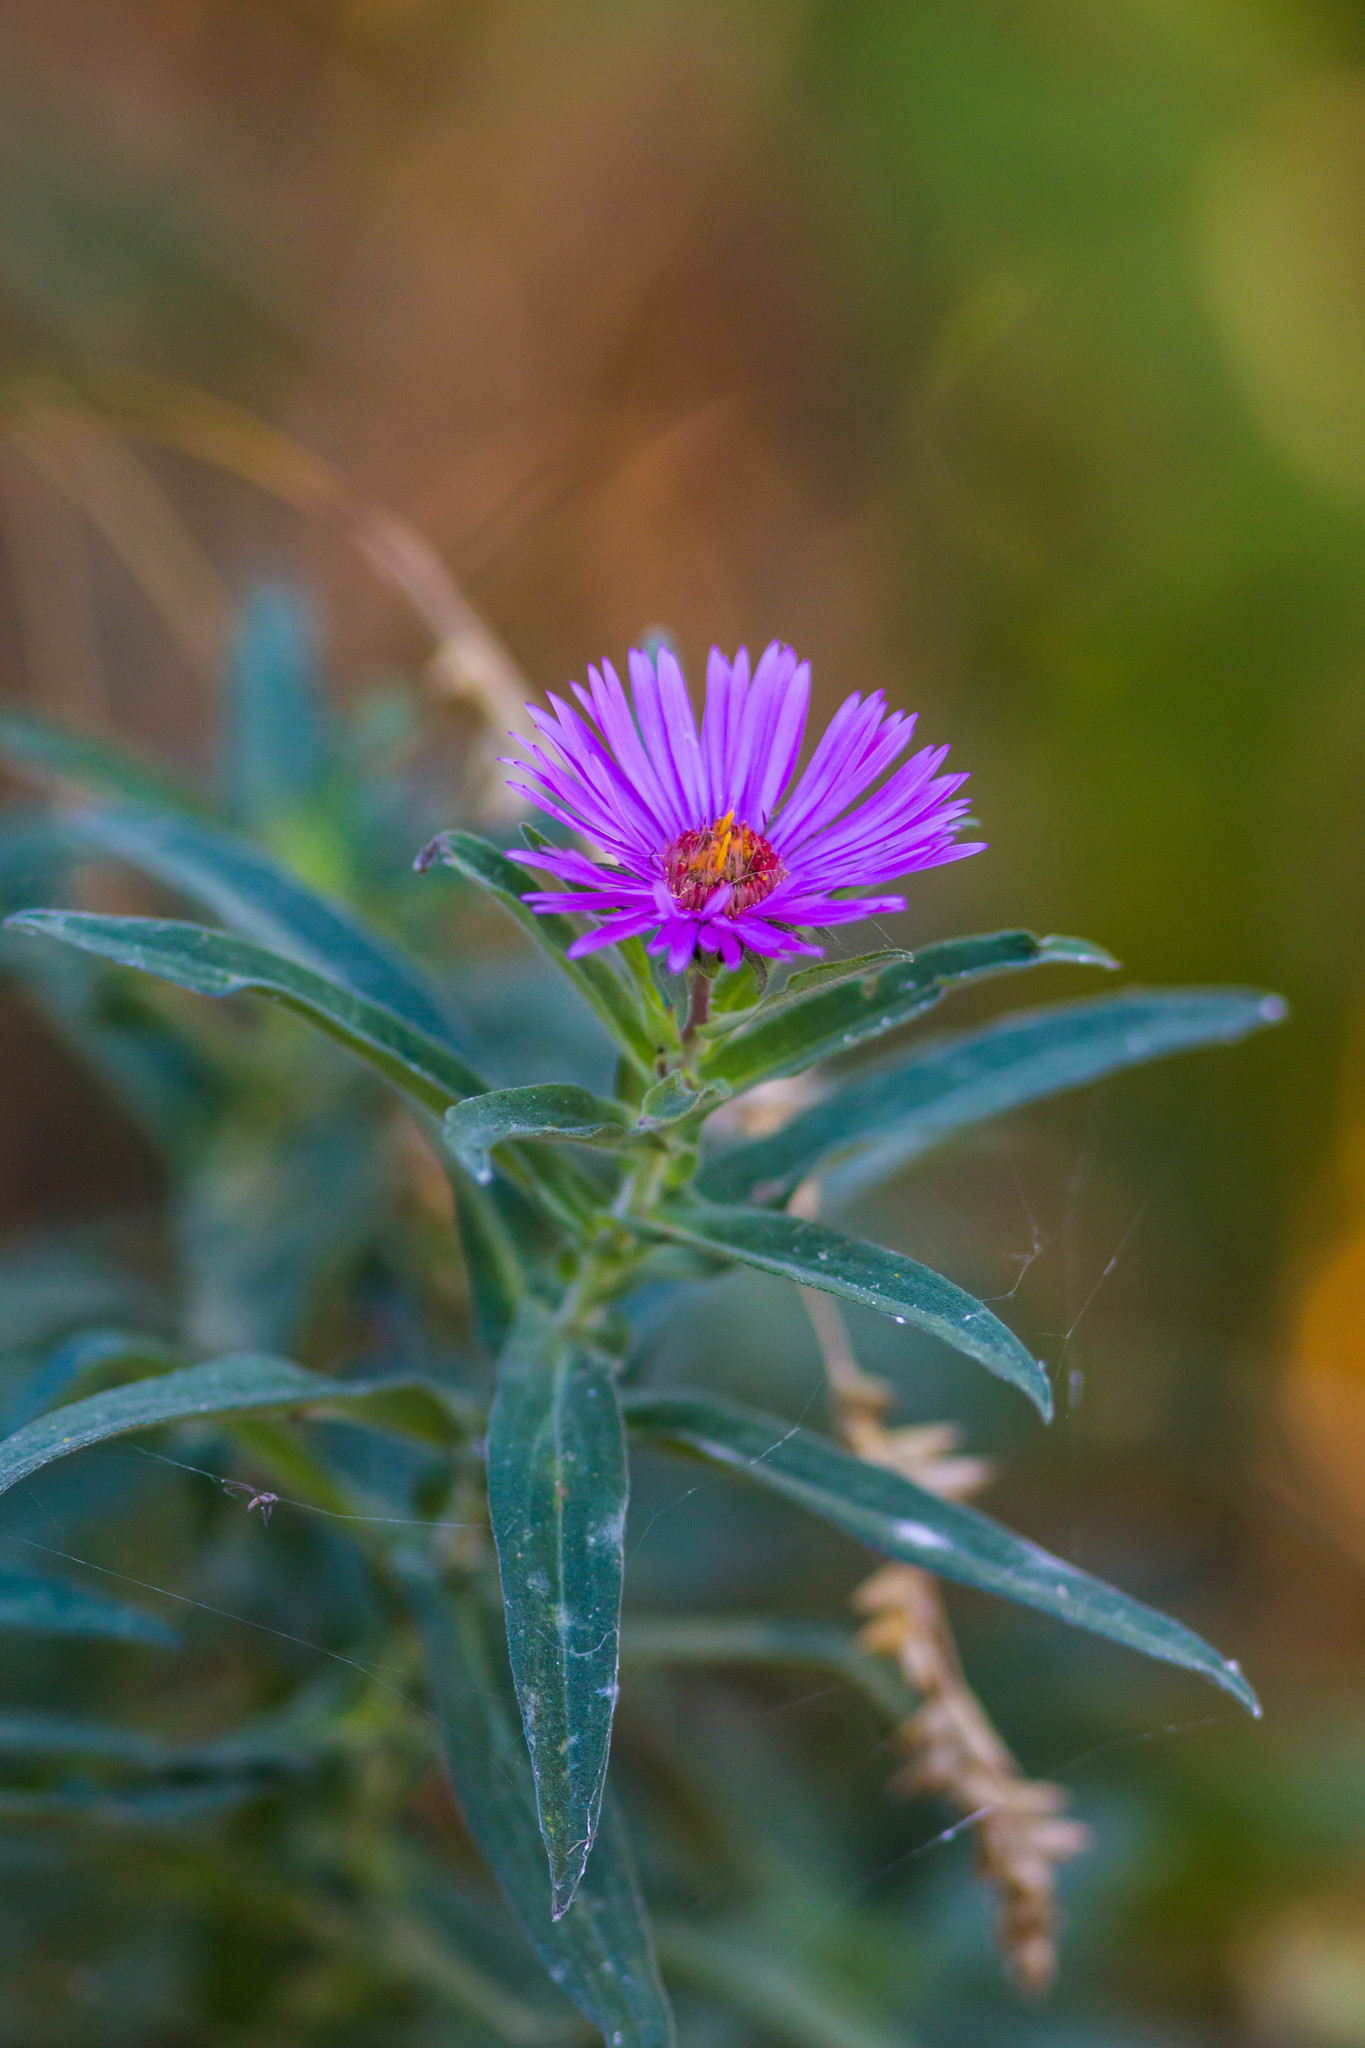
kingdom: Plantae
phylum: Tracheophyta
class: Magnoliopsida
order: Asterales
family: Asteraceae
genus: Symphyotrichum
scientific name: Symphyotrichum novae-angliae
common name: Michaelmas daisy
